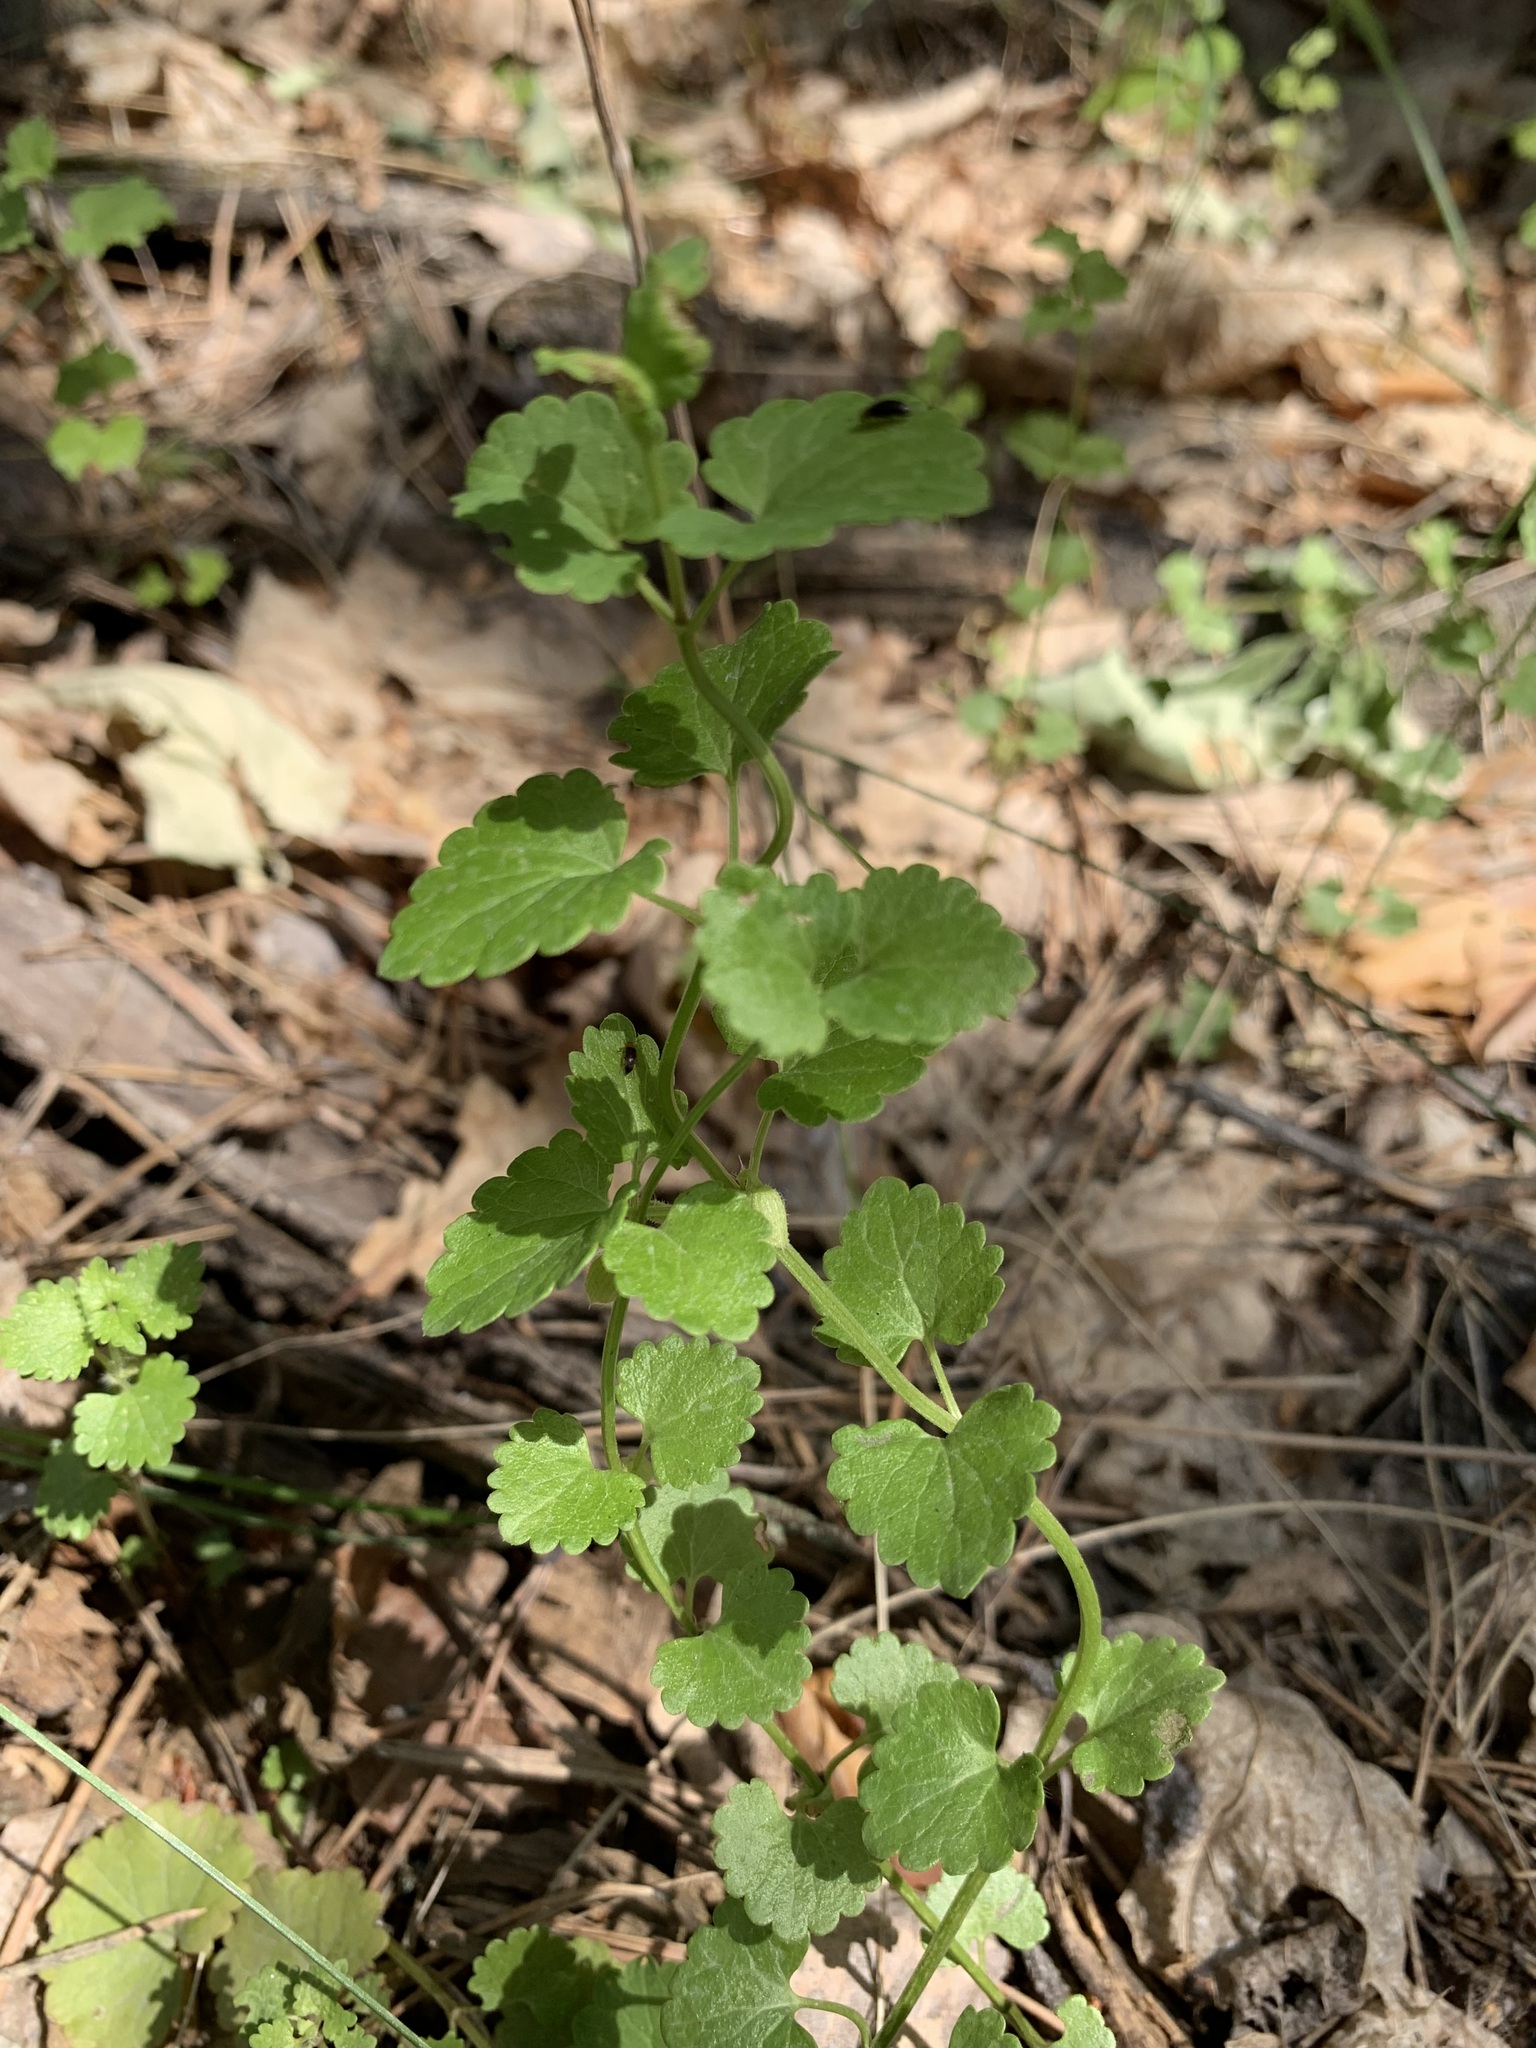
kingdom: Plantae
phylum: Tracheophyta
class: Magnoliopsida
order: Lamiales
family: Lamiaceae
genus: Glechoma
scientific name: Glechoma hederacea
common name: Ground ivy
